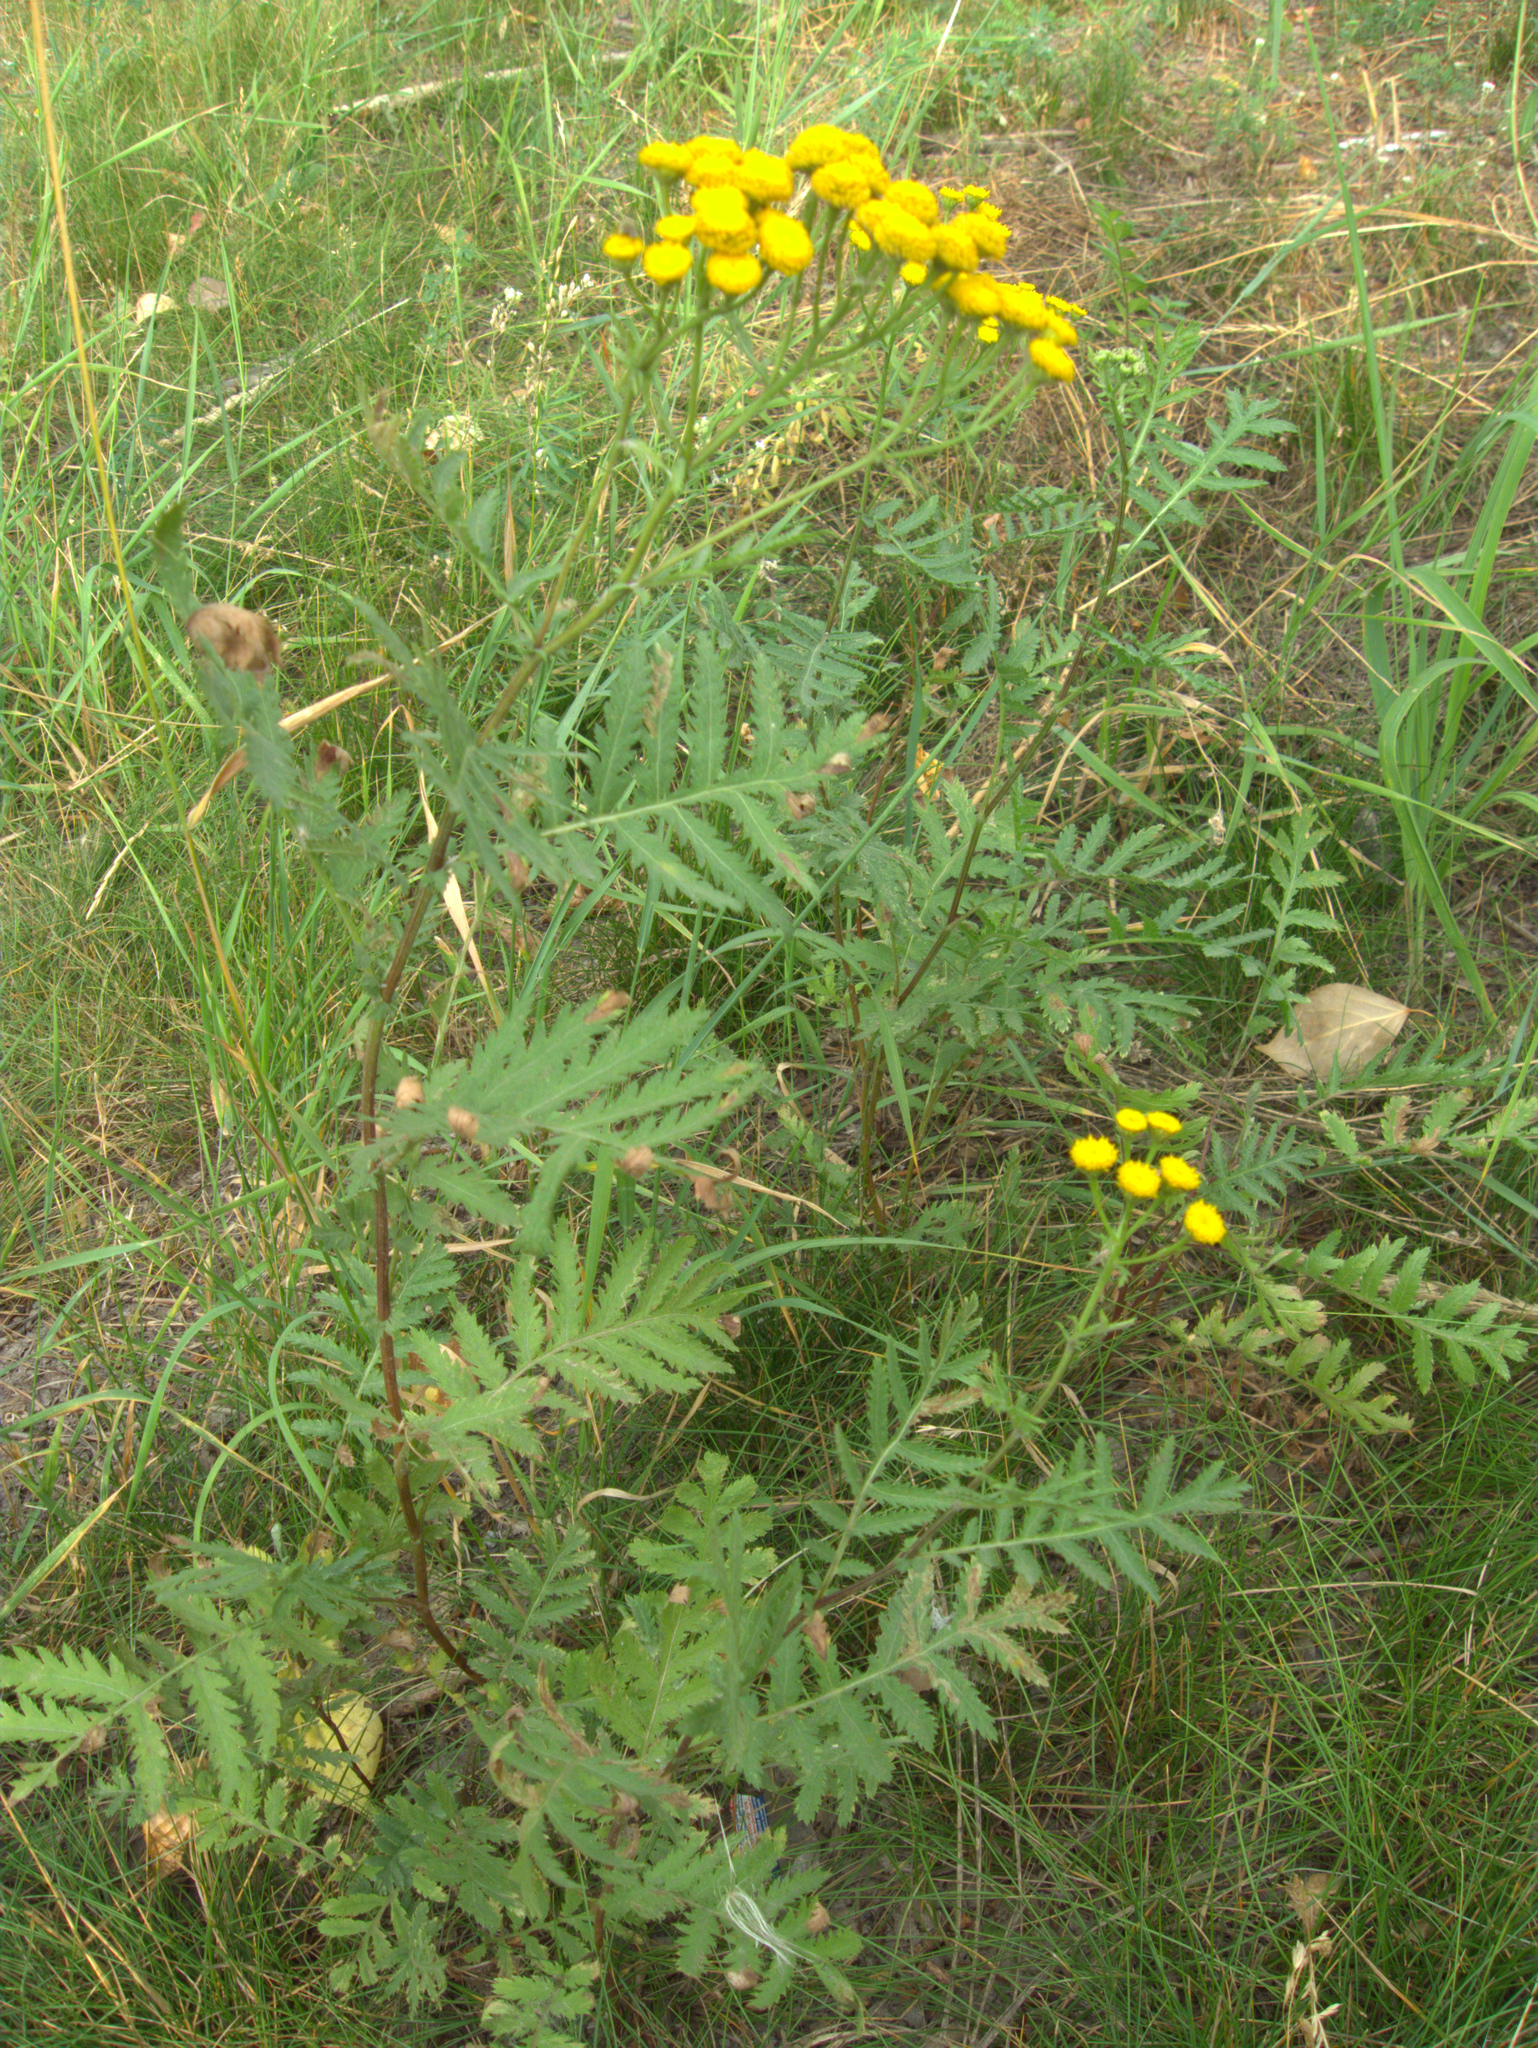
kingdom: Plantae
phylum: Tracheophyta
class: Magnoliopsida
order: Asterales
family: Asteraceae
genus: Tanacetum
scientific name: Tanacetum vulgare
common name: Common tansy
